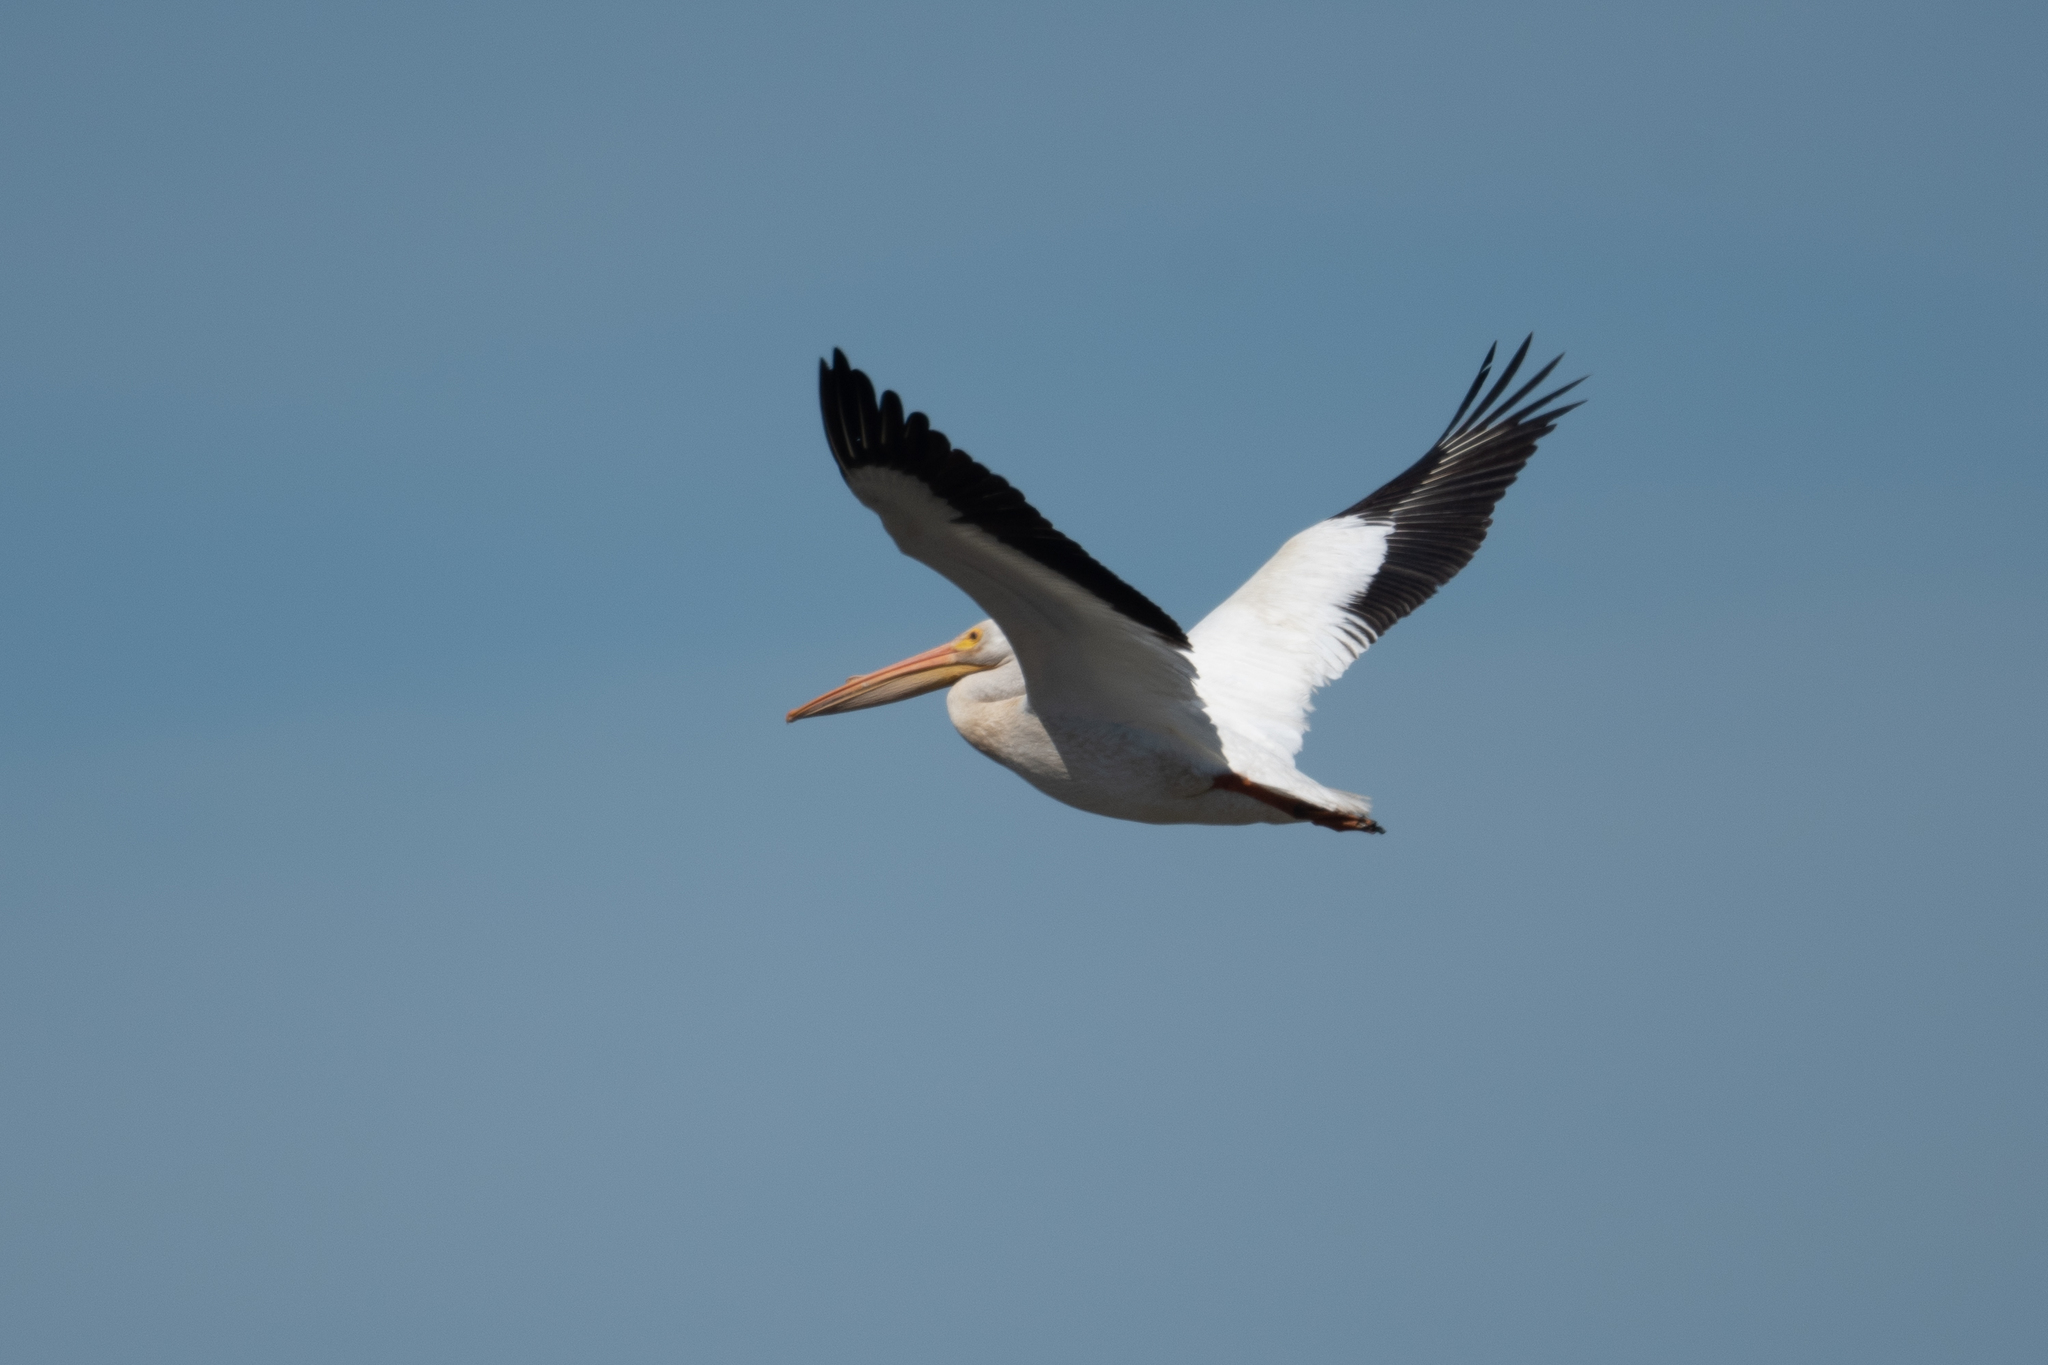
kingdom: Animalia
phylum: Chordata
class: Aves
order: Pelecaniformes
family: Pelecanidae
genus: Pelecanus
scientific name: Pelecanus erythrorhynchos
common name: American white pelican
